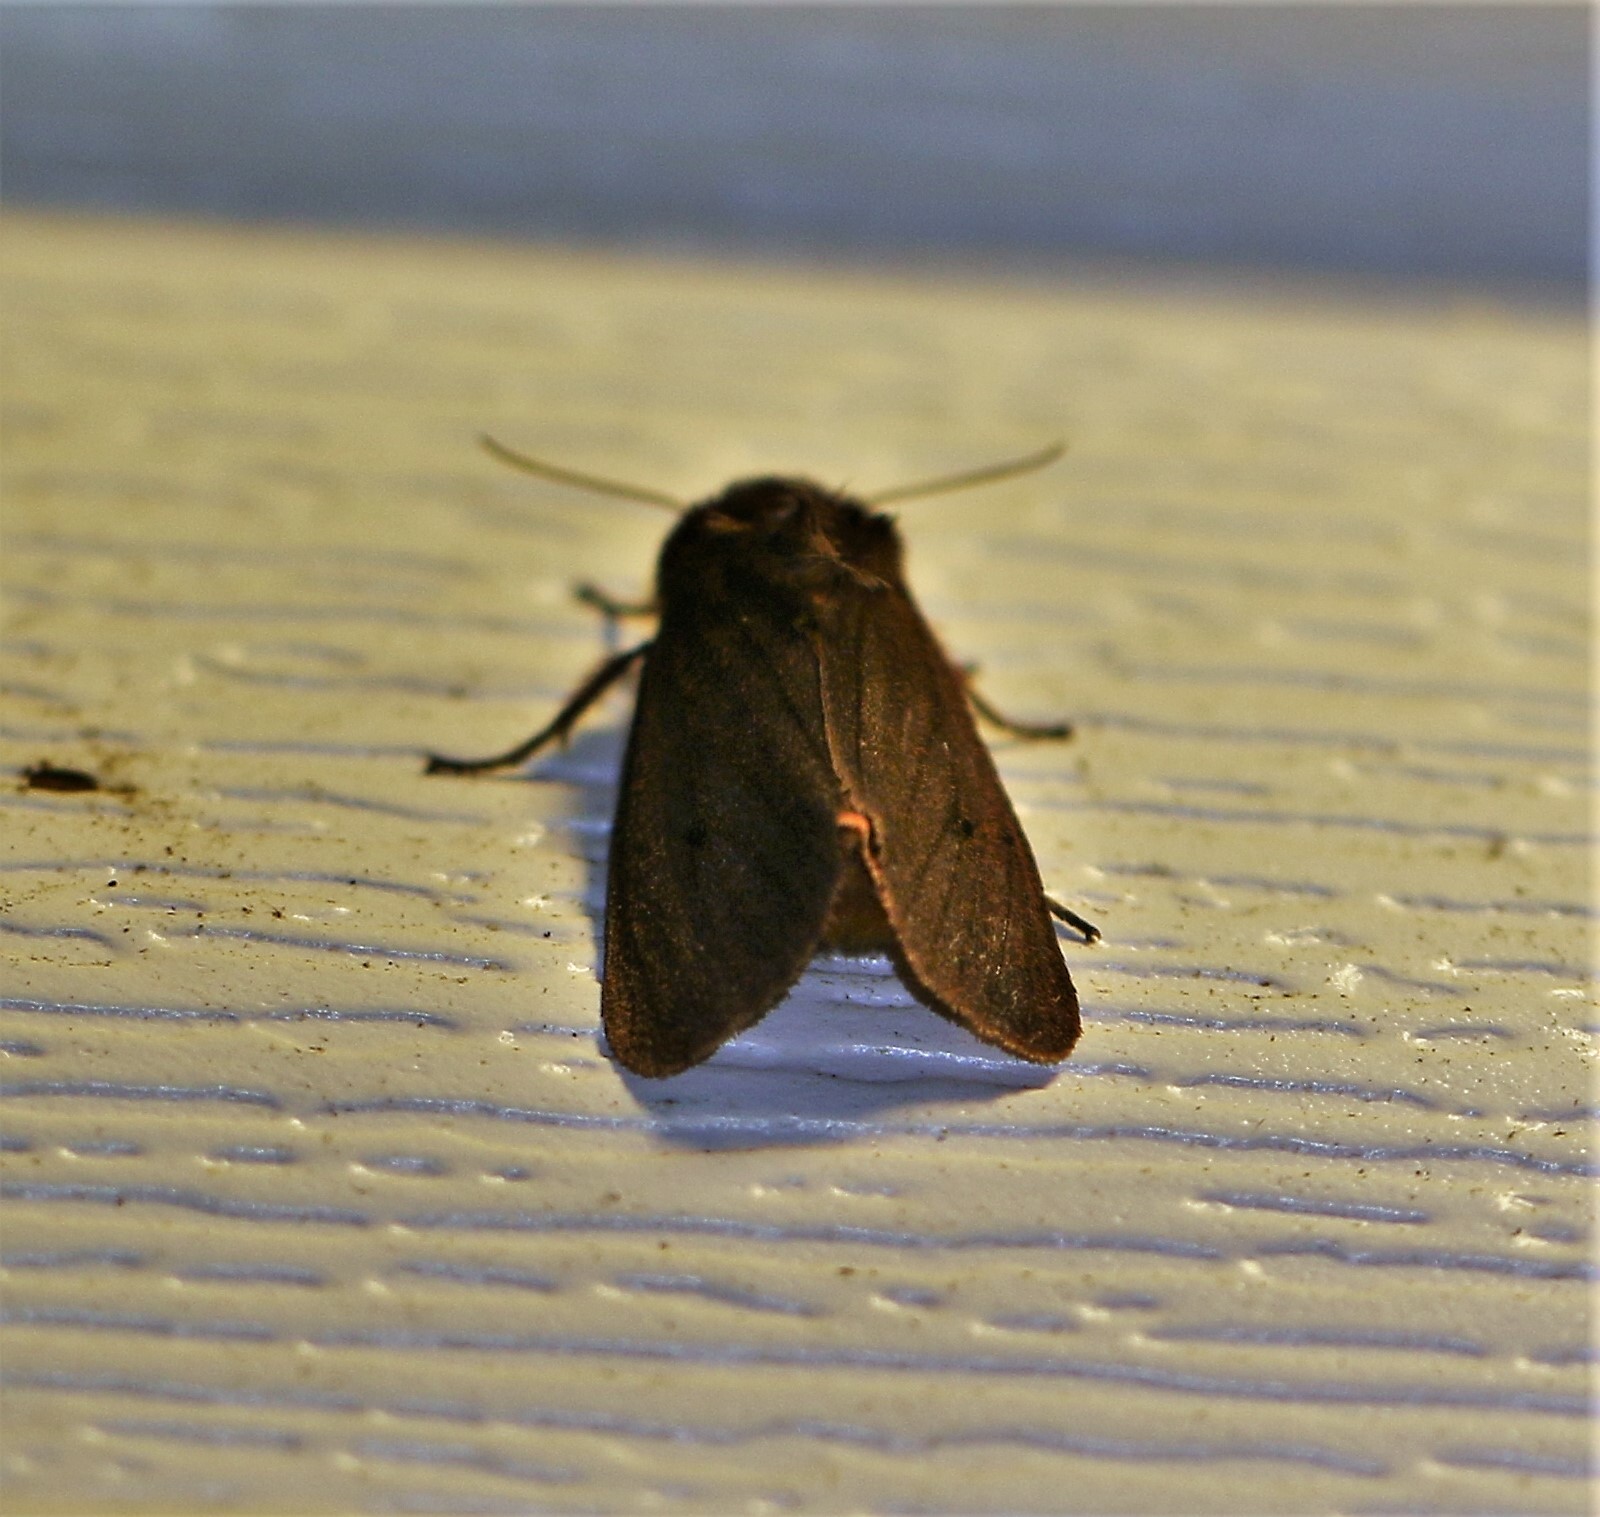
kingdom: Animalia
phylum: Arthropoda
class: Insecta
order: Lepidoptera
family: Erebidae
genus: Phragmatobia
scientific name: Phragmatobia fuliginosa
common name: Ruby tiger
